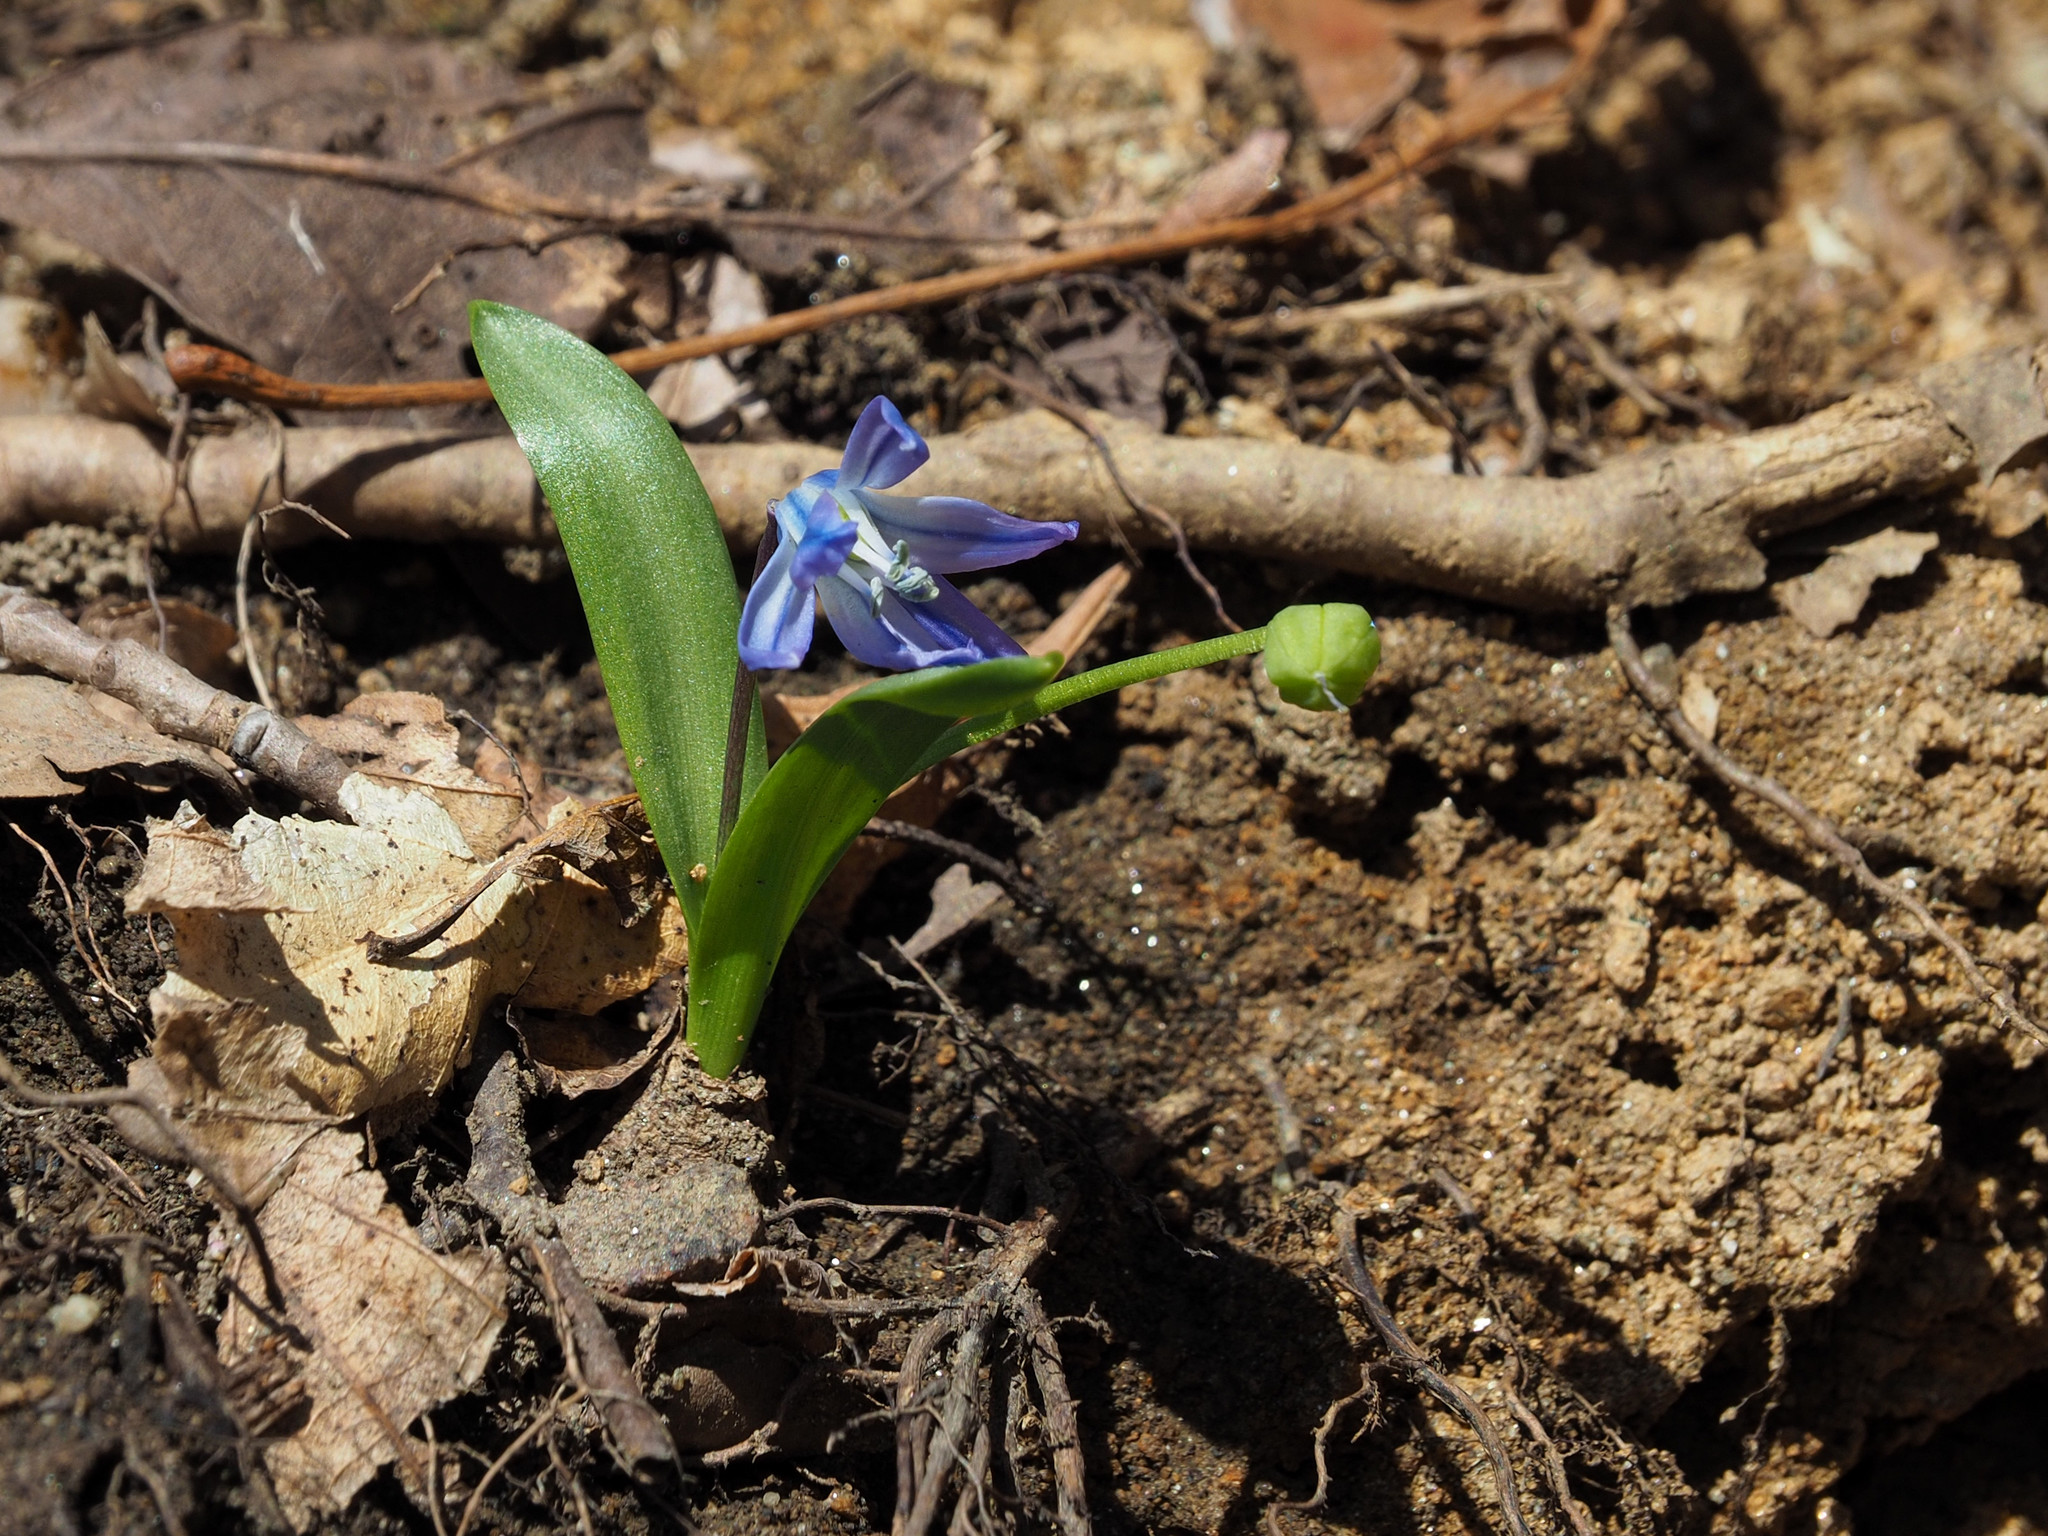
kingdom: Plantae
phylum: Tracheophyta
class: Liliopsida
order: Asparagales
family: Asparagaceae
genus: Scilla
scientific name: Scilla siberica
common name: Siberian squill
